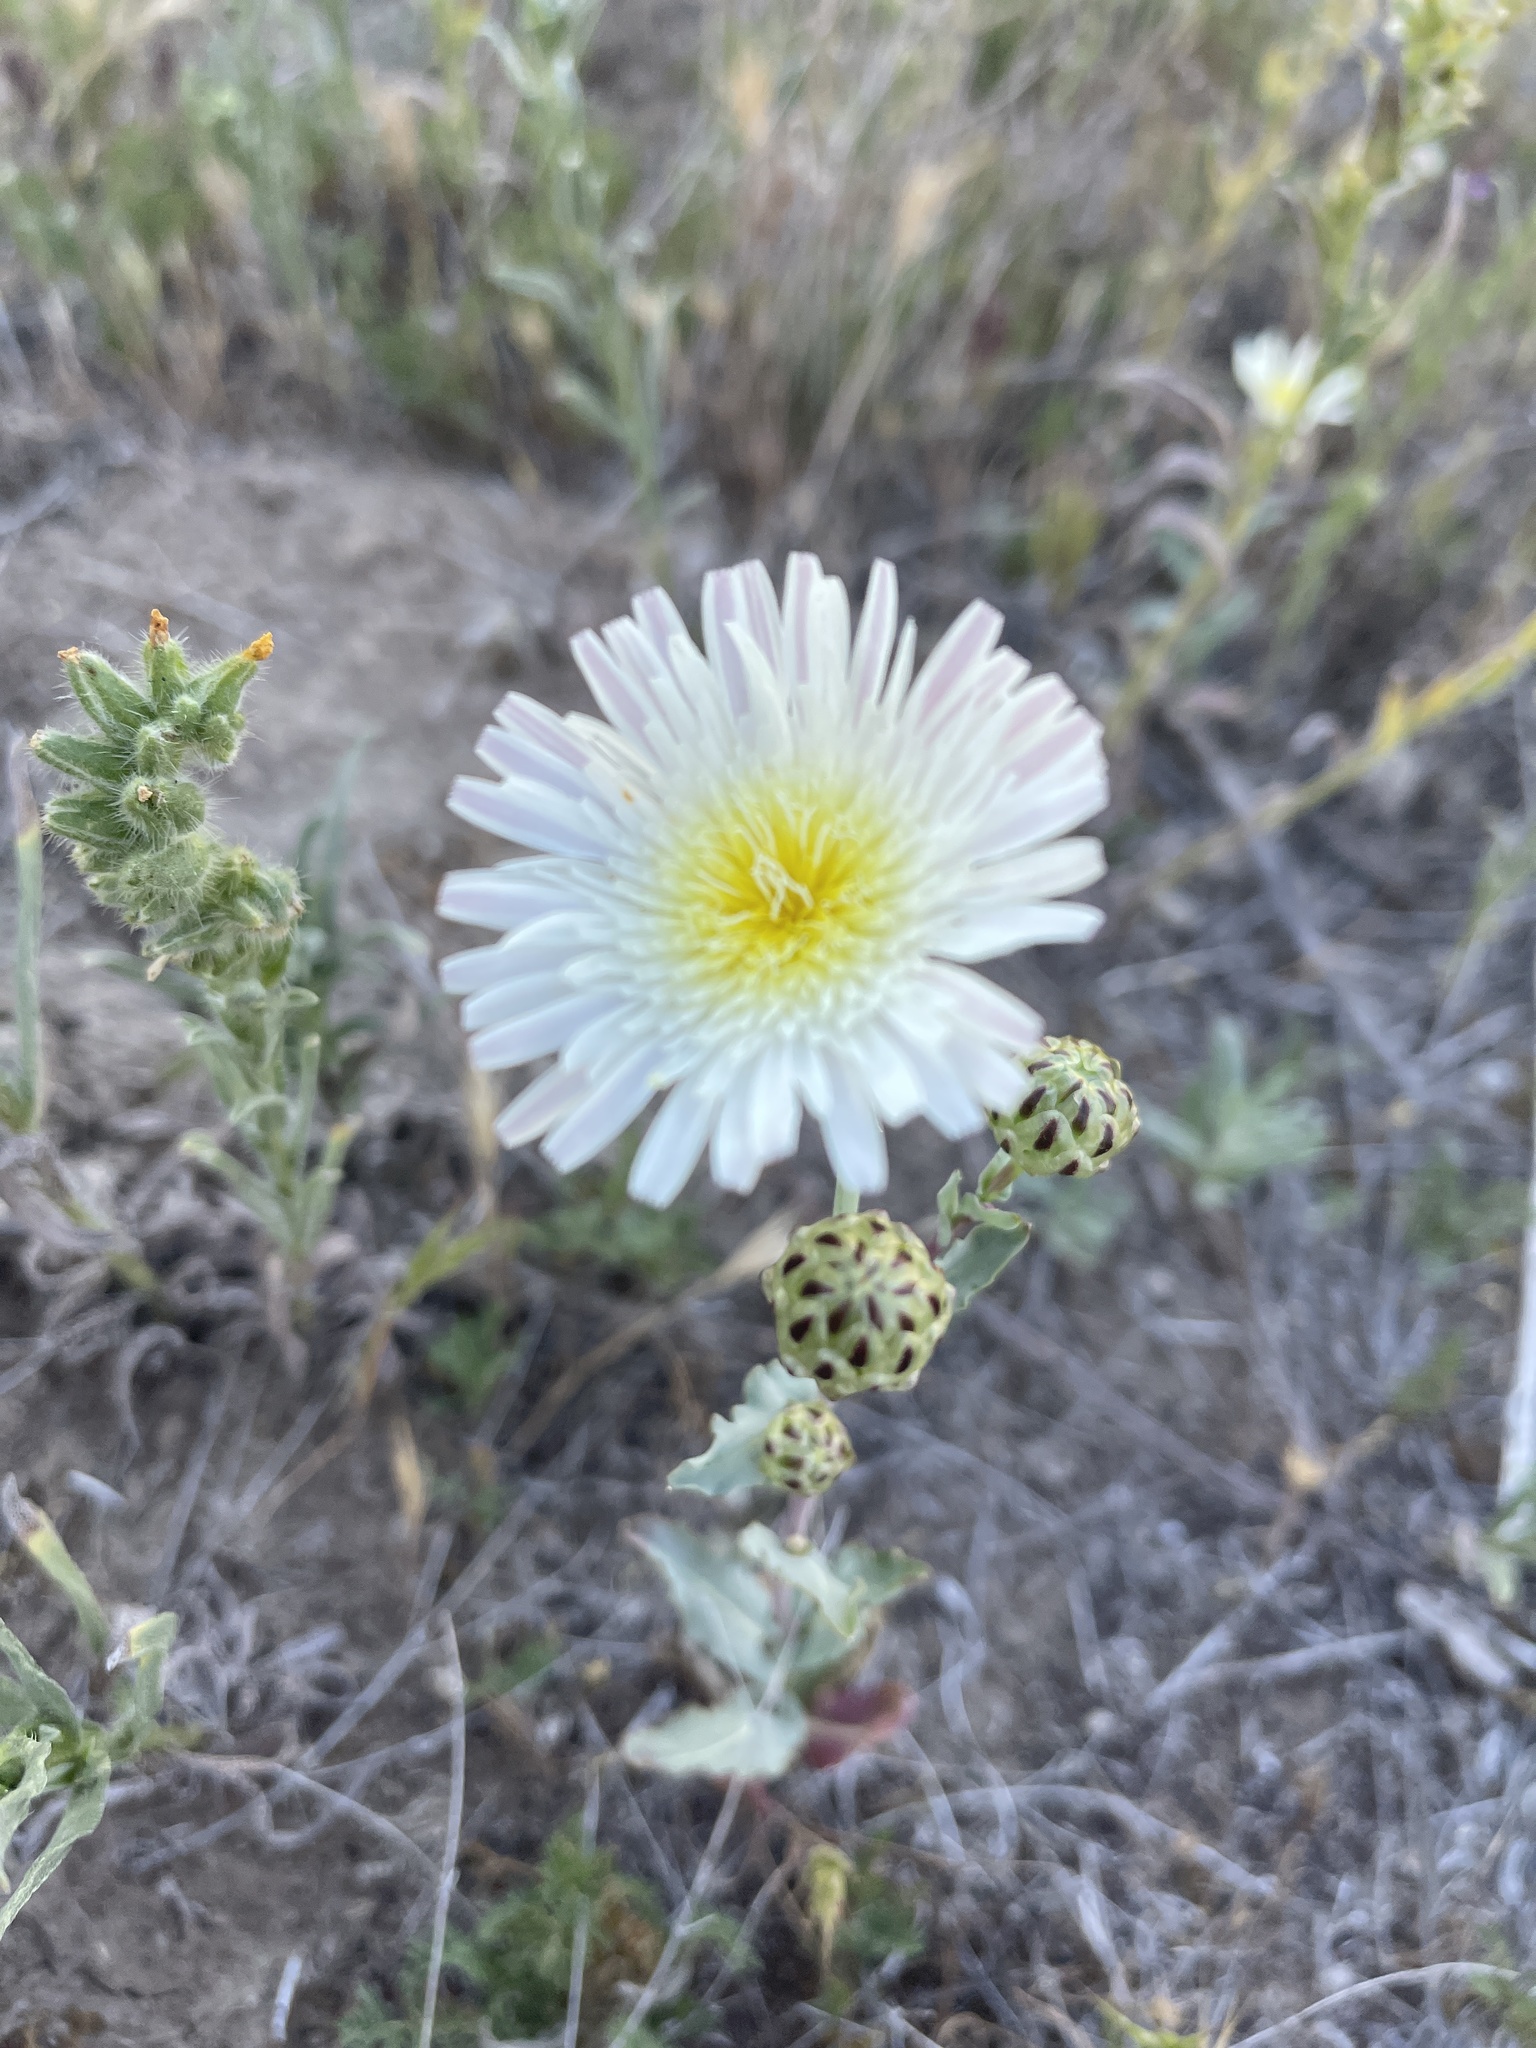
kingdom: Plantae
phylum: Tracheophyta
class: Magnoliopsida
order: Asterales
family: Asteraceae
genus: Malacothrix
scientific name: Malacothrix coulteri
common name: Snake's-head
